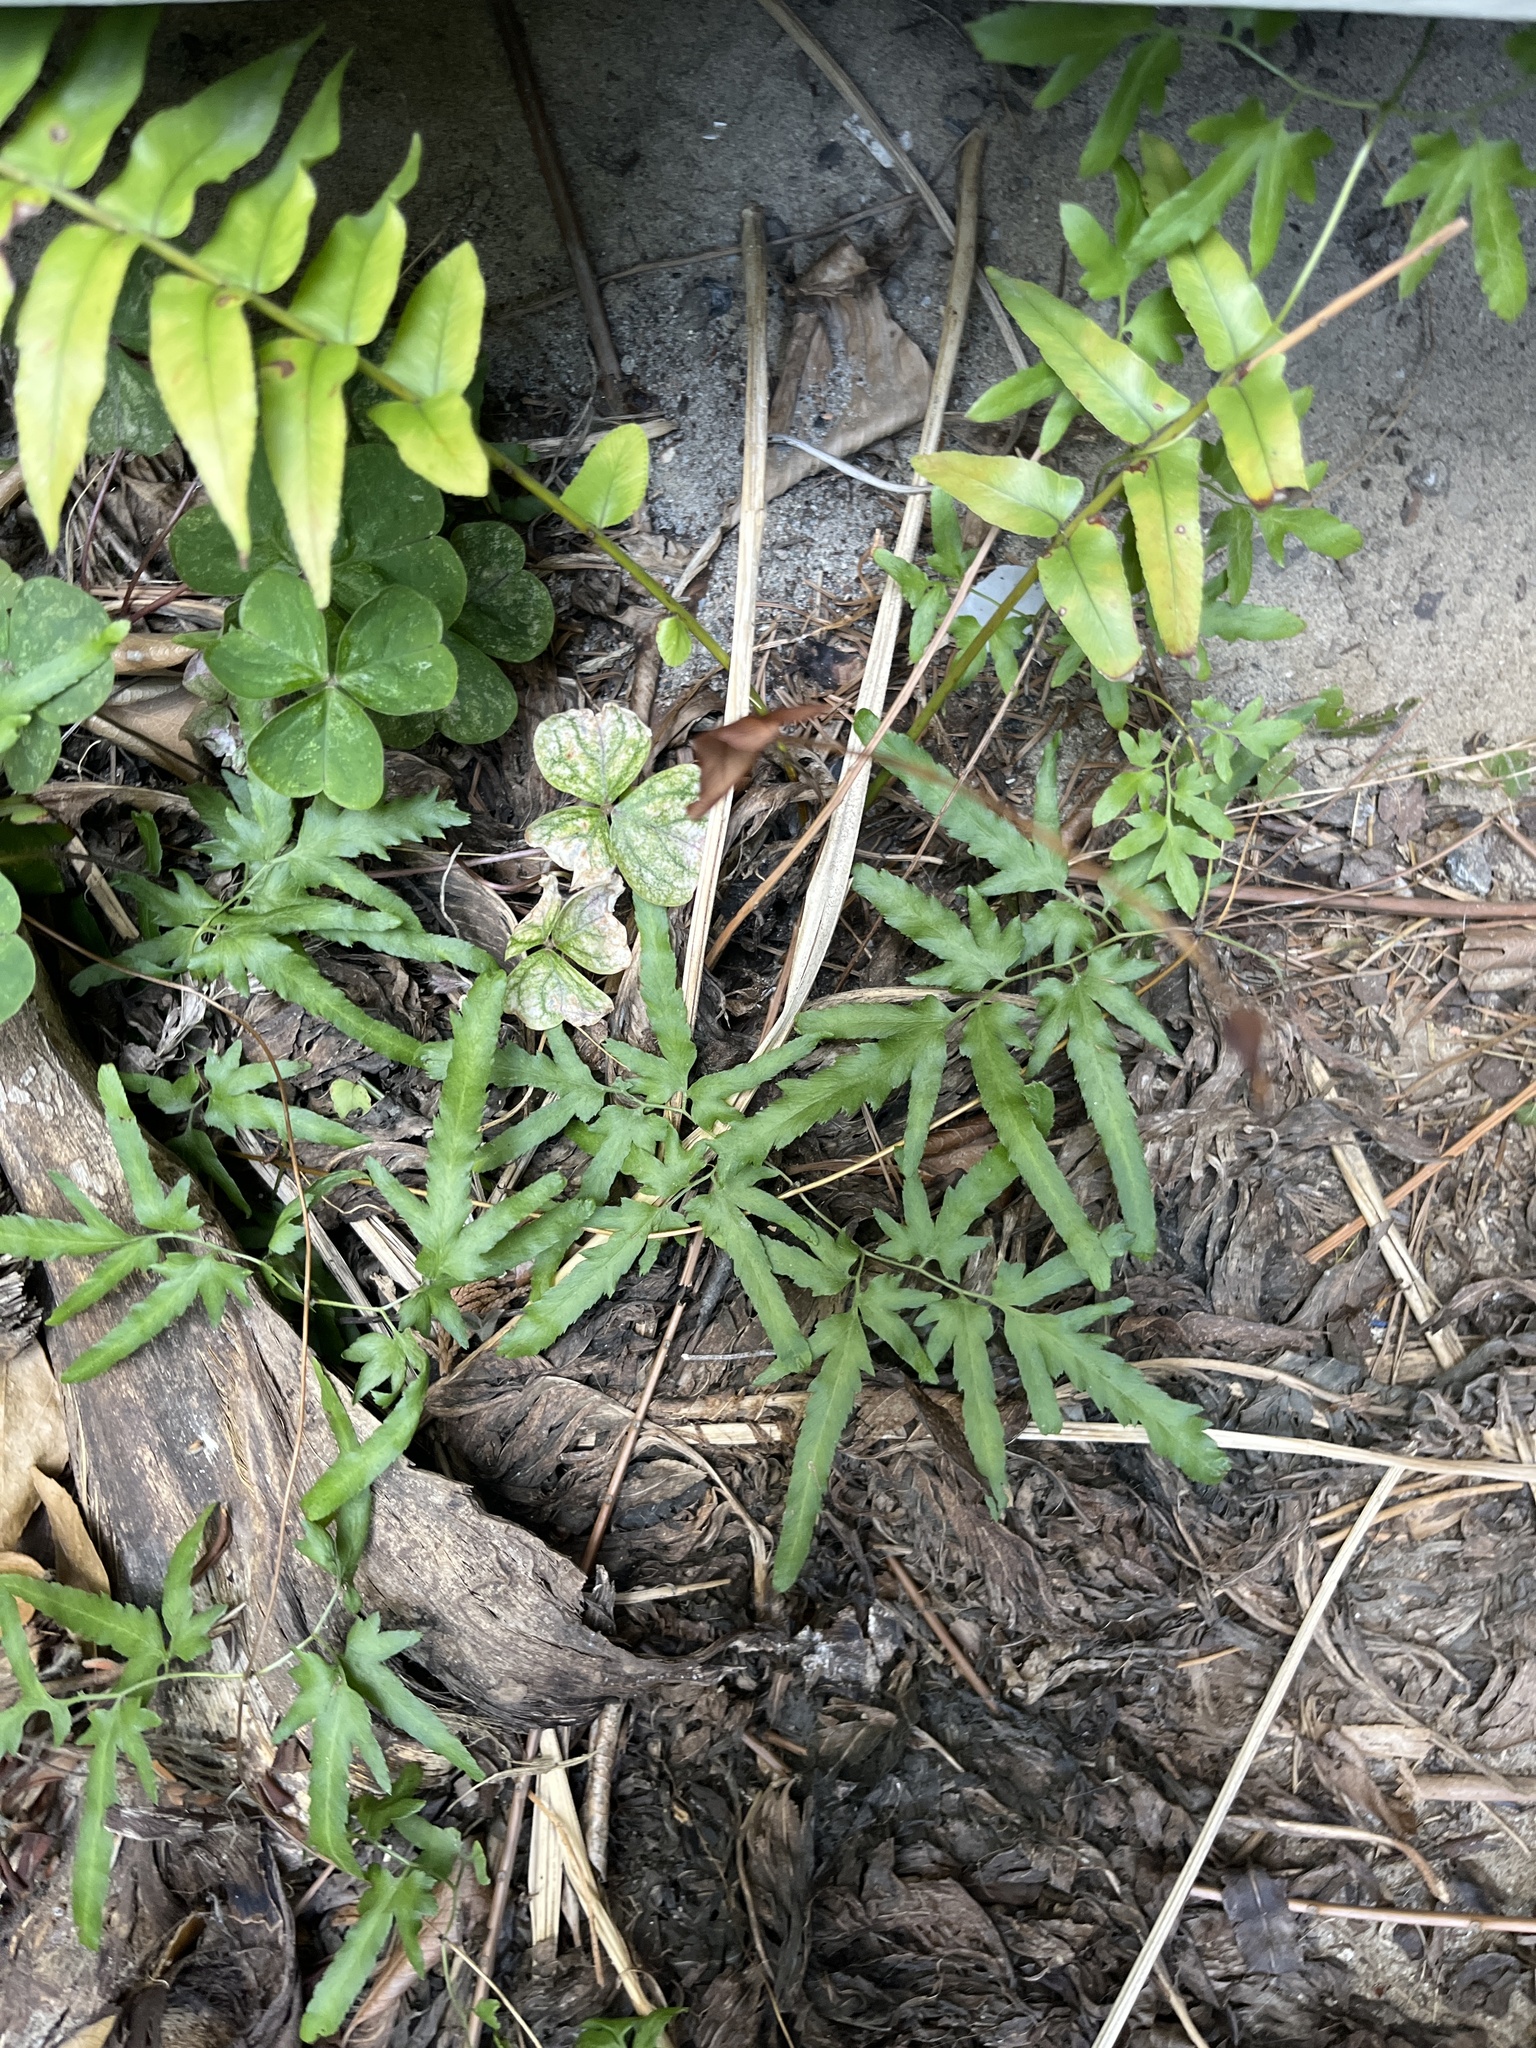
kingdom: Plantae
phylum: Tracheophyta
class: Polypodiopsida
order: Schizaeales
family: Lygodiaceae
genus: Lygodium
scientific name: Lygodium japonicum
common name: Japanese climbing fern
